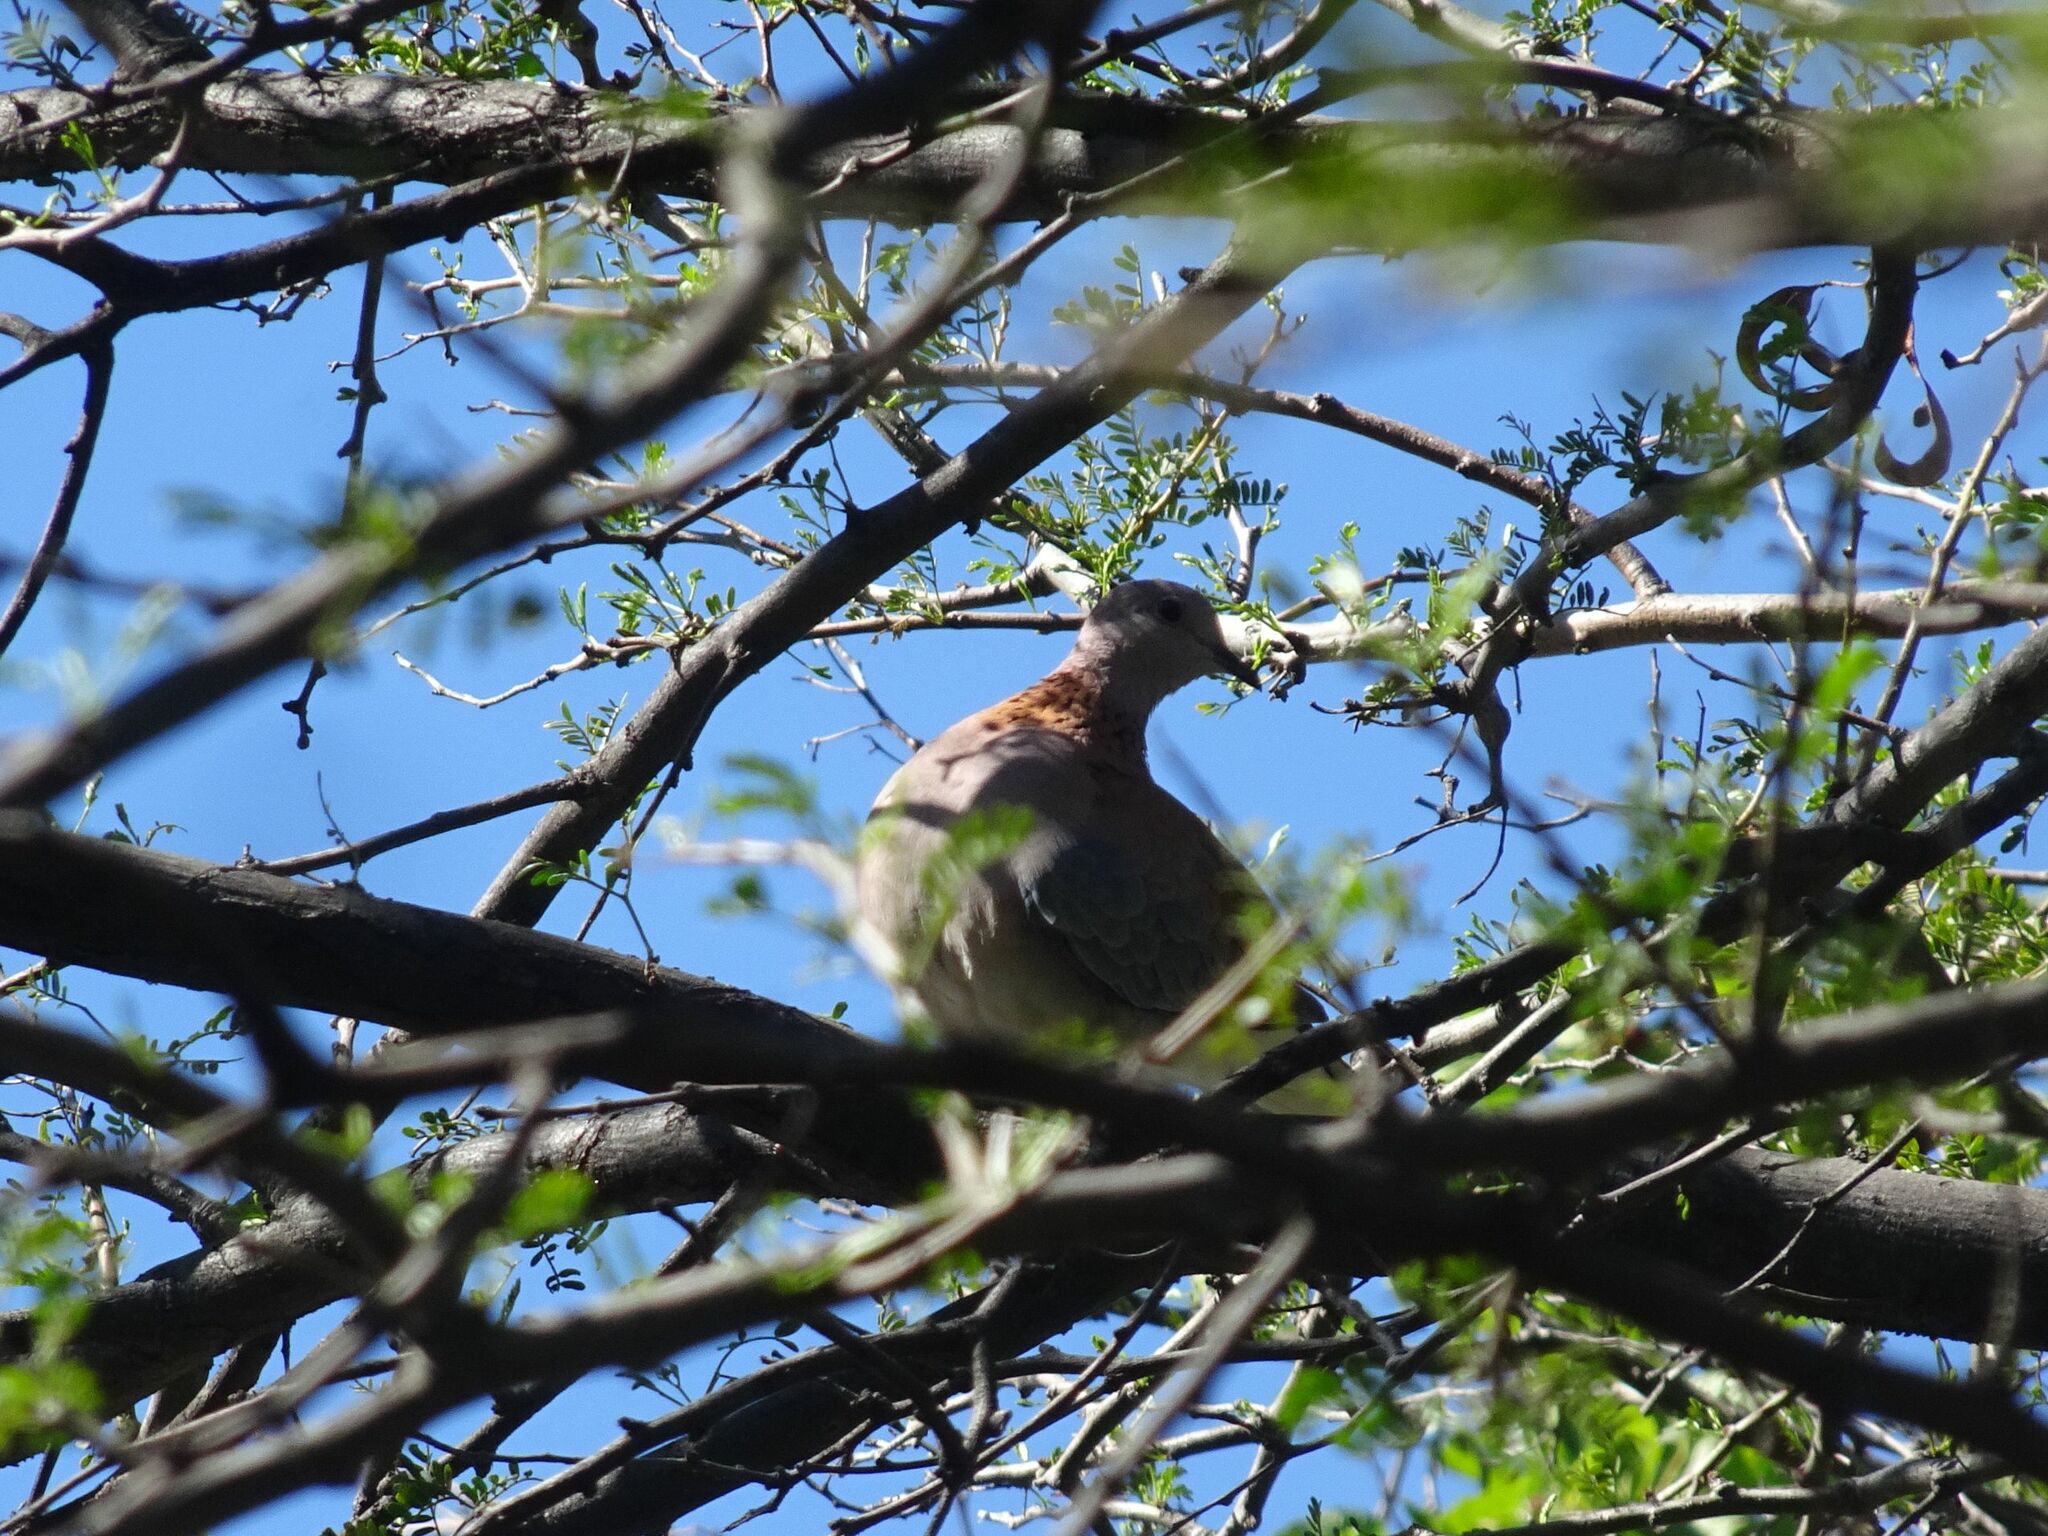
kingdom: Animalia
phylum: Chordata
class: Aves
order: Columbiformes
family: Columbidae
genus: Spilopelia
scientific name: Spilopelia senegalensis
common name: Laughing dove
